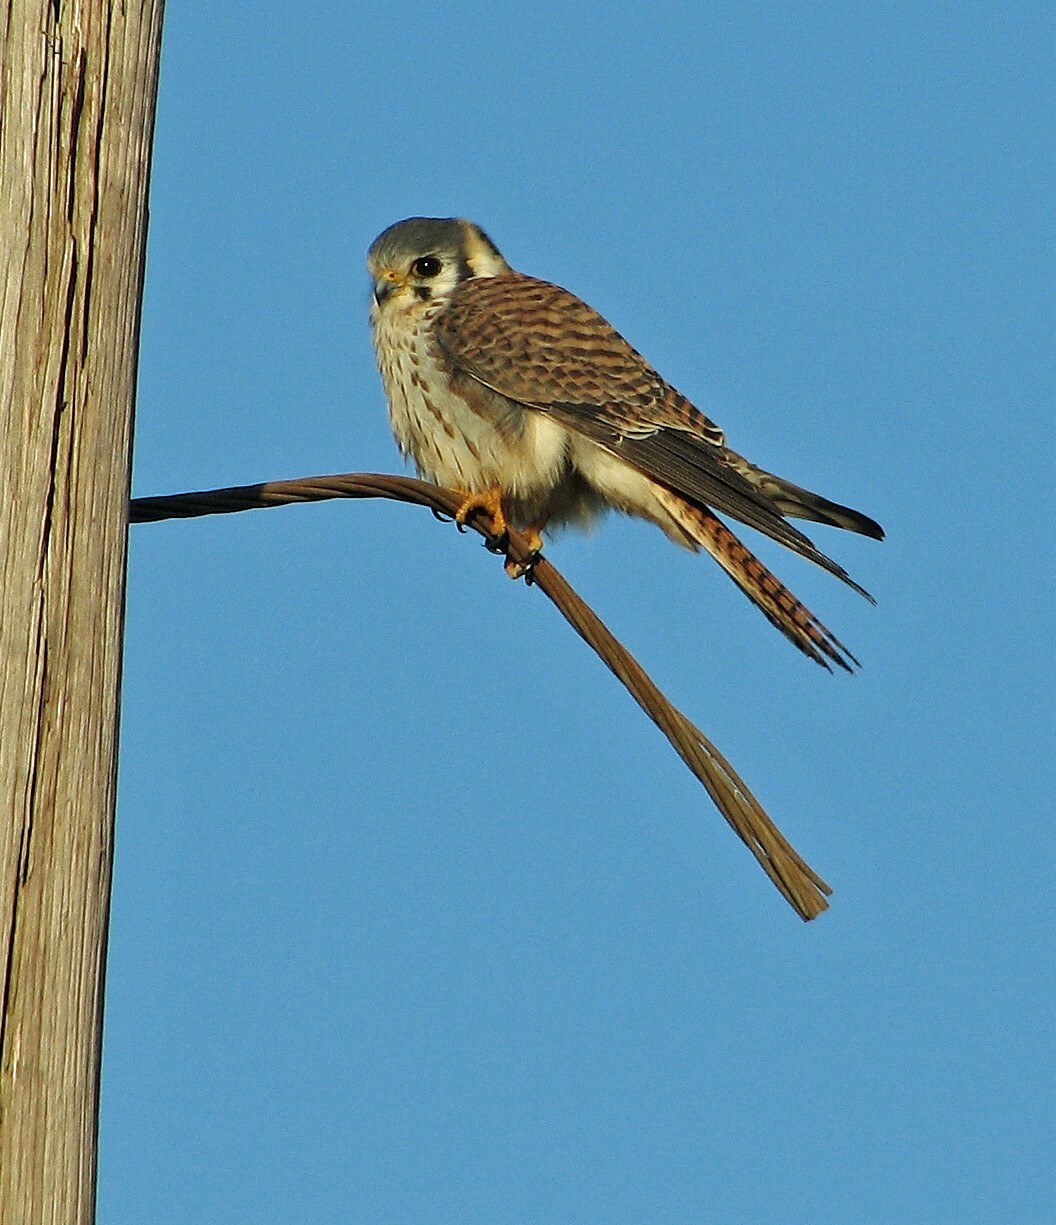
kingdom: Animalia
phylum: Chordata
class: Aves
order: Falconiformes
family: Falconidae
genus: Falco
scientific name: Falco sparverius
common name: American kestrel
